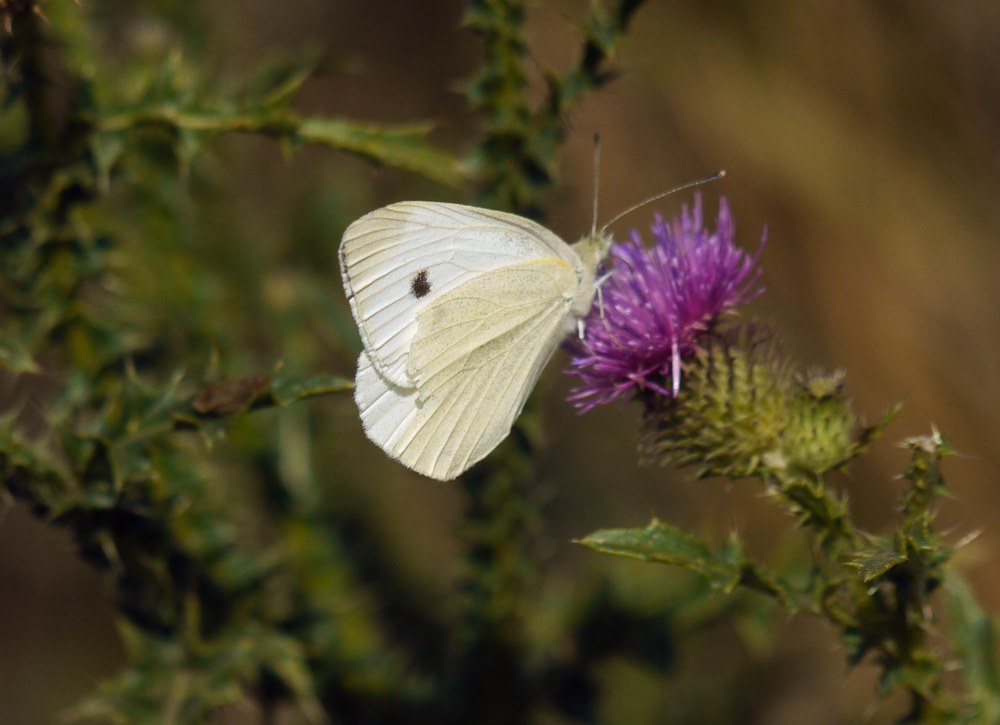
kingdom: Animalia
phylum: Arthropoda
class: Insecta
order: Lepidoptera
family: Pieridae
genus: Pieris
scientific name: Pieris rapae
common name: Small white
